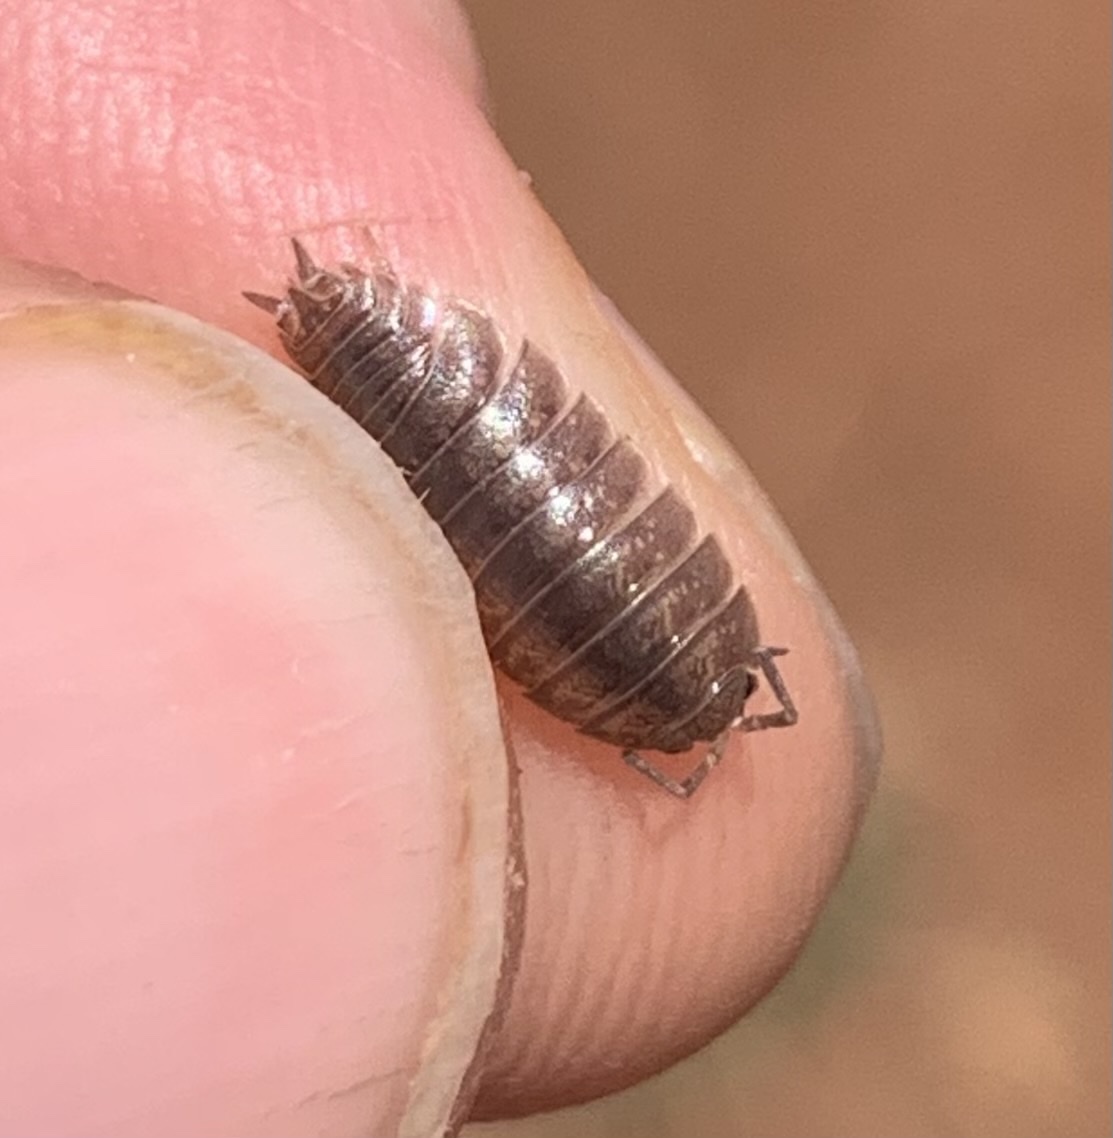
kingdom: Animalia
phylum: Arthropoda
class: Malacostraca
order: Isopoda
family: Porcellionidae
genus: Porcellio
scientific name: Porcellio laevis
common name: Swift woodlouse
